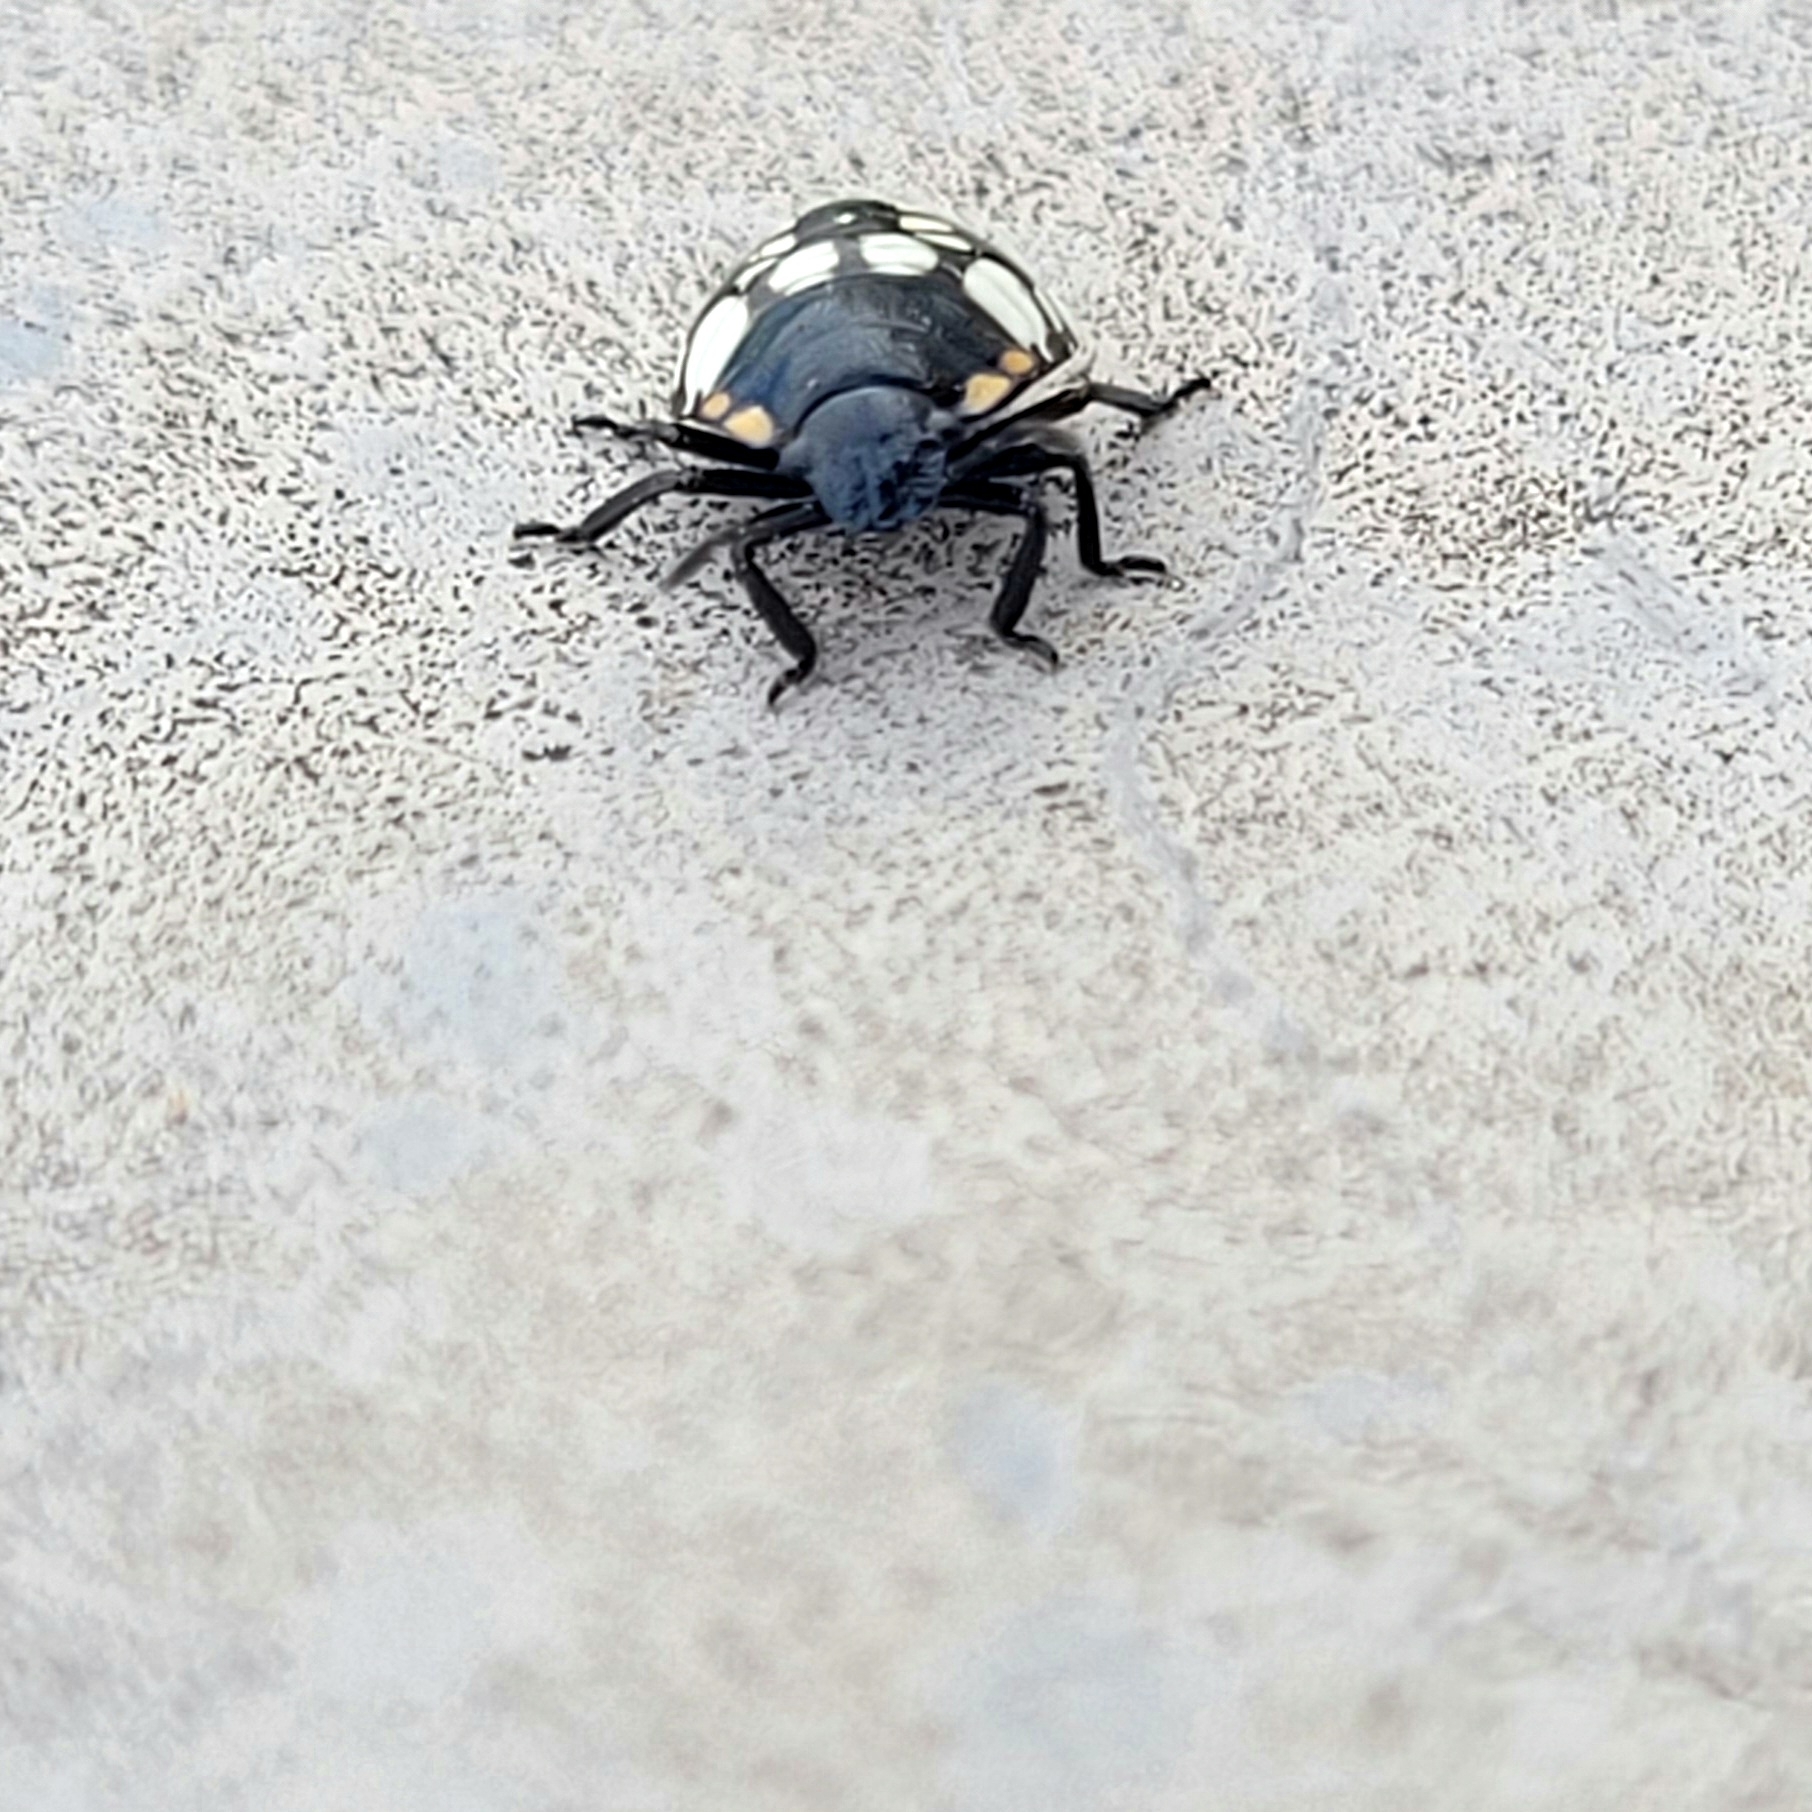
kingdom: Animalia
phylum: Arthropoda
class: Insecta
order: Hemiptera
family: Pentatomidae
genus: Nezara
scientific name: Nezara viridula
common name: Southern green stink bug
